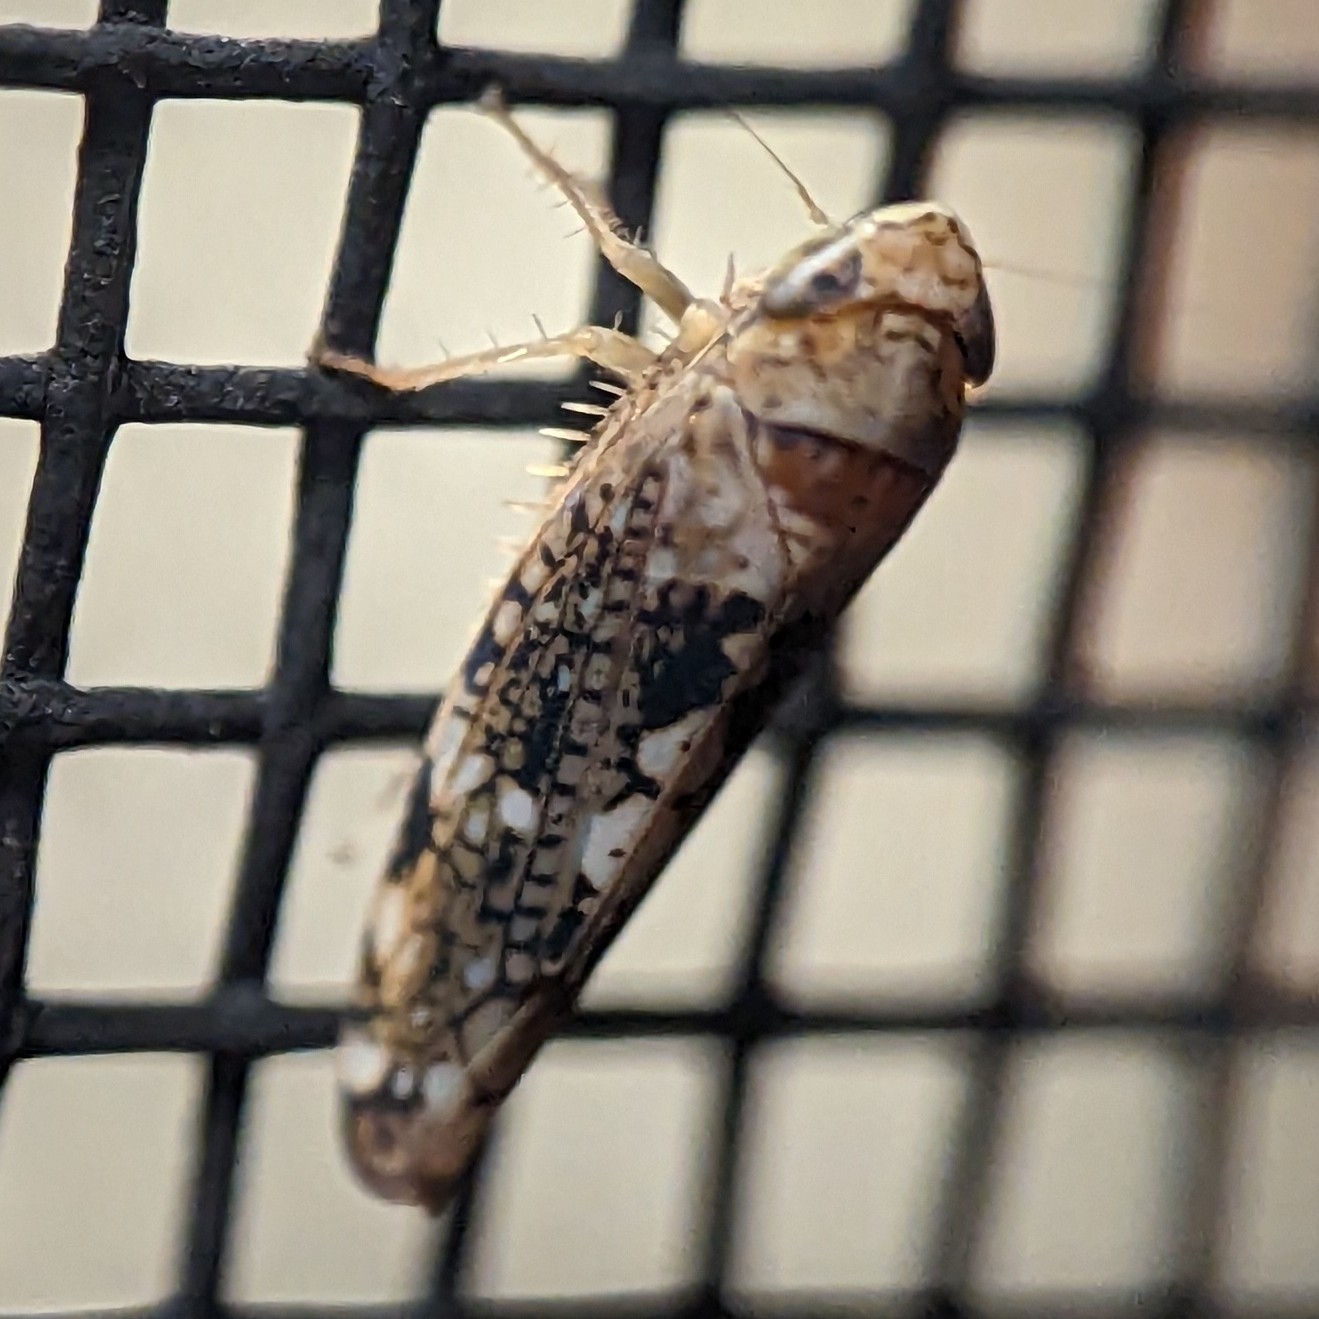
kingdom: Animalia
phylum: Arthropoda
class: Insecta
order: Hemiptera
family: Cicadellidae
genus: Prescottia
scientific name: Prescottia lobata
